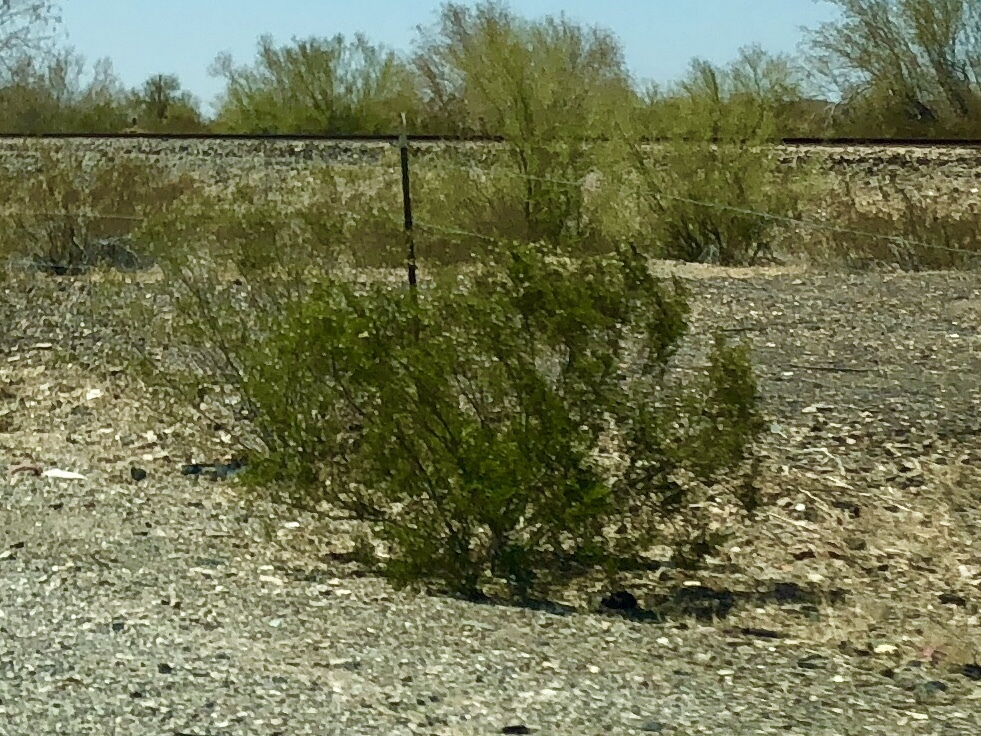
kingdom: Plantae
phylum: Tracheophyta
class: Magnoliopsida
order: Zygophyllales
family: Zygophyllaceae
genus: Larrea
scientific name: Larrea tridentata
